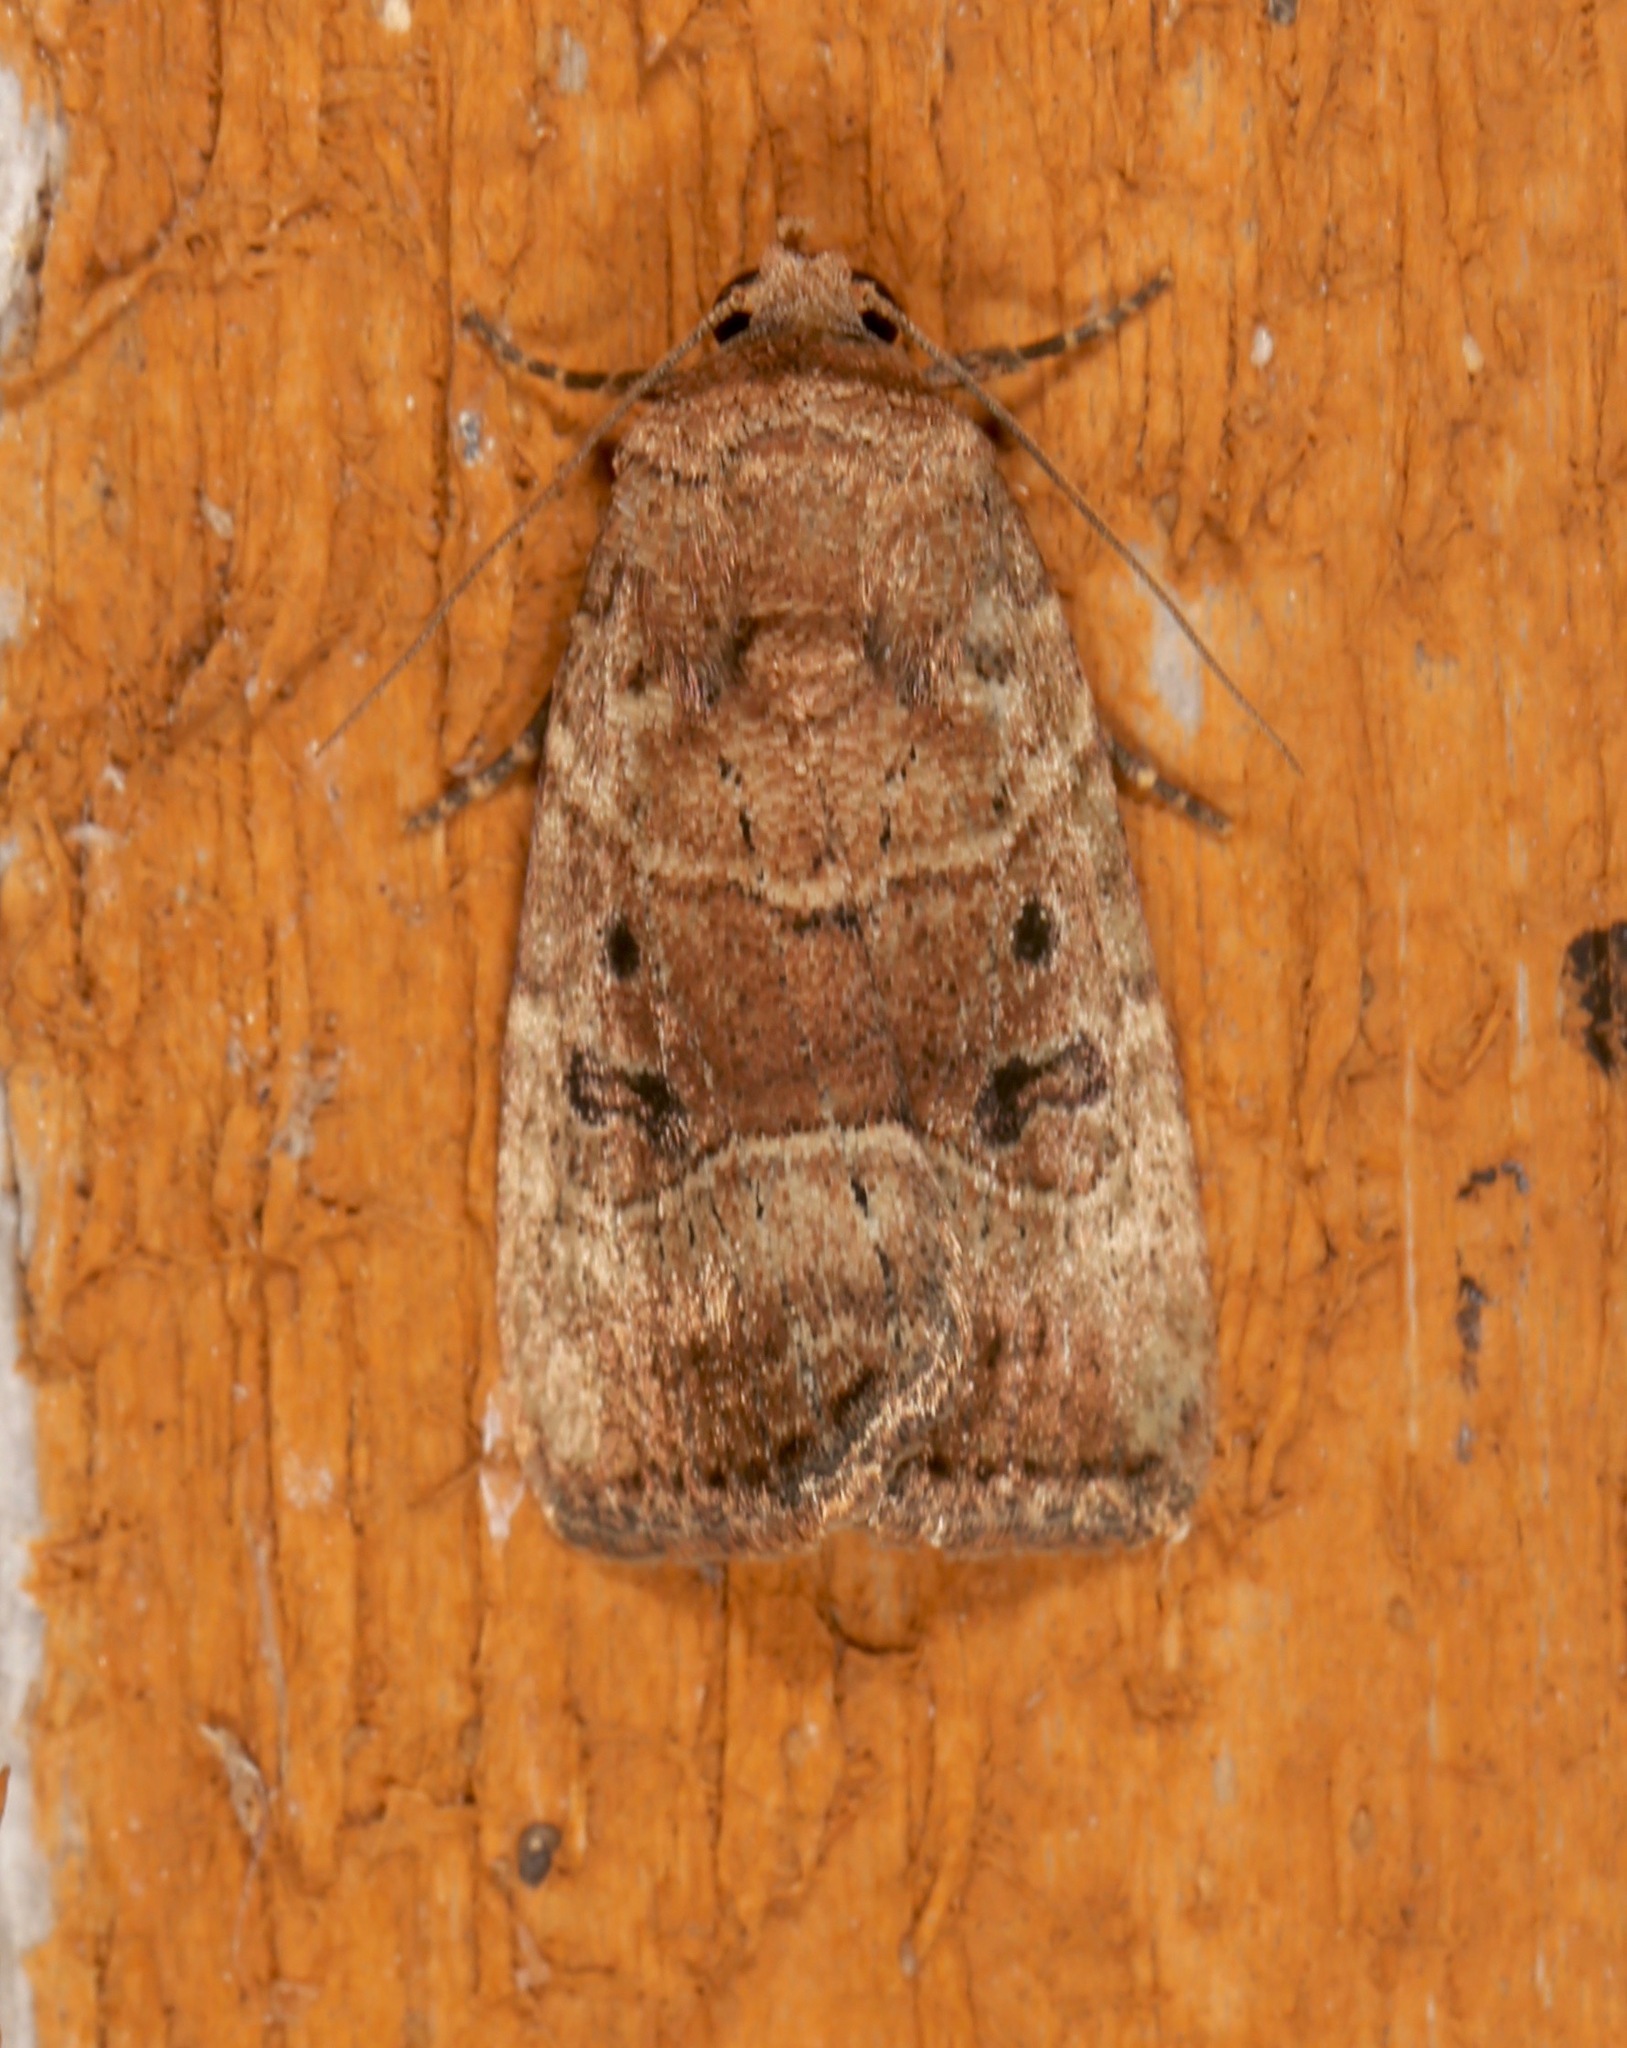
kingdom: Animalia
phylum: Arthropoda
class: Insecta
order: Lepidoptera
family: Noctuidae
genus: Elaphria
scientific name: Elaphria fuscimacula
